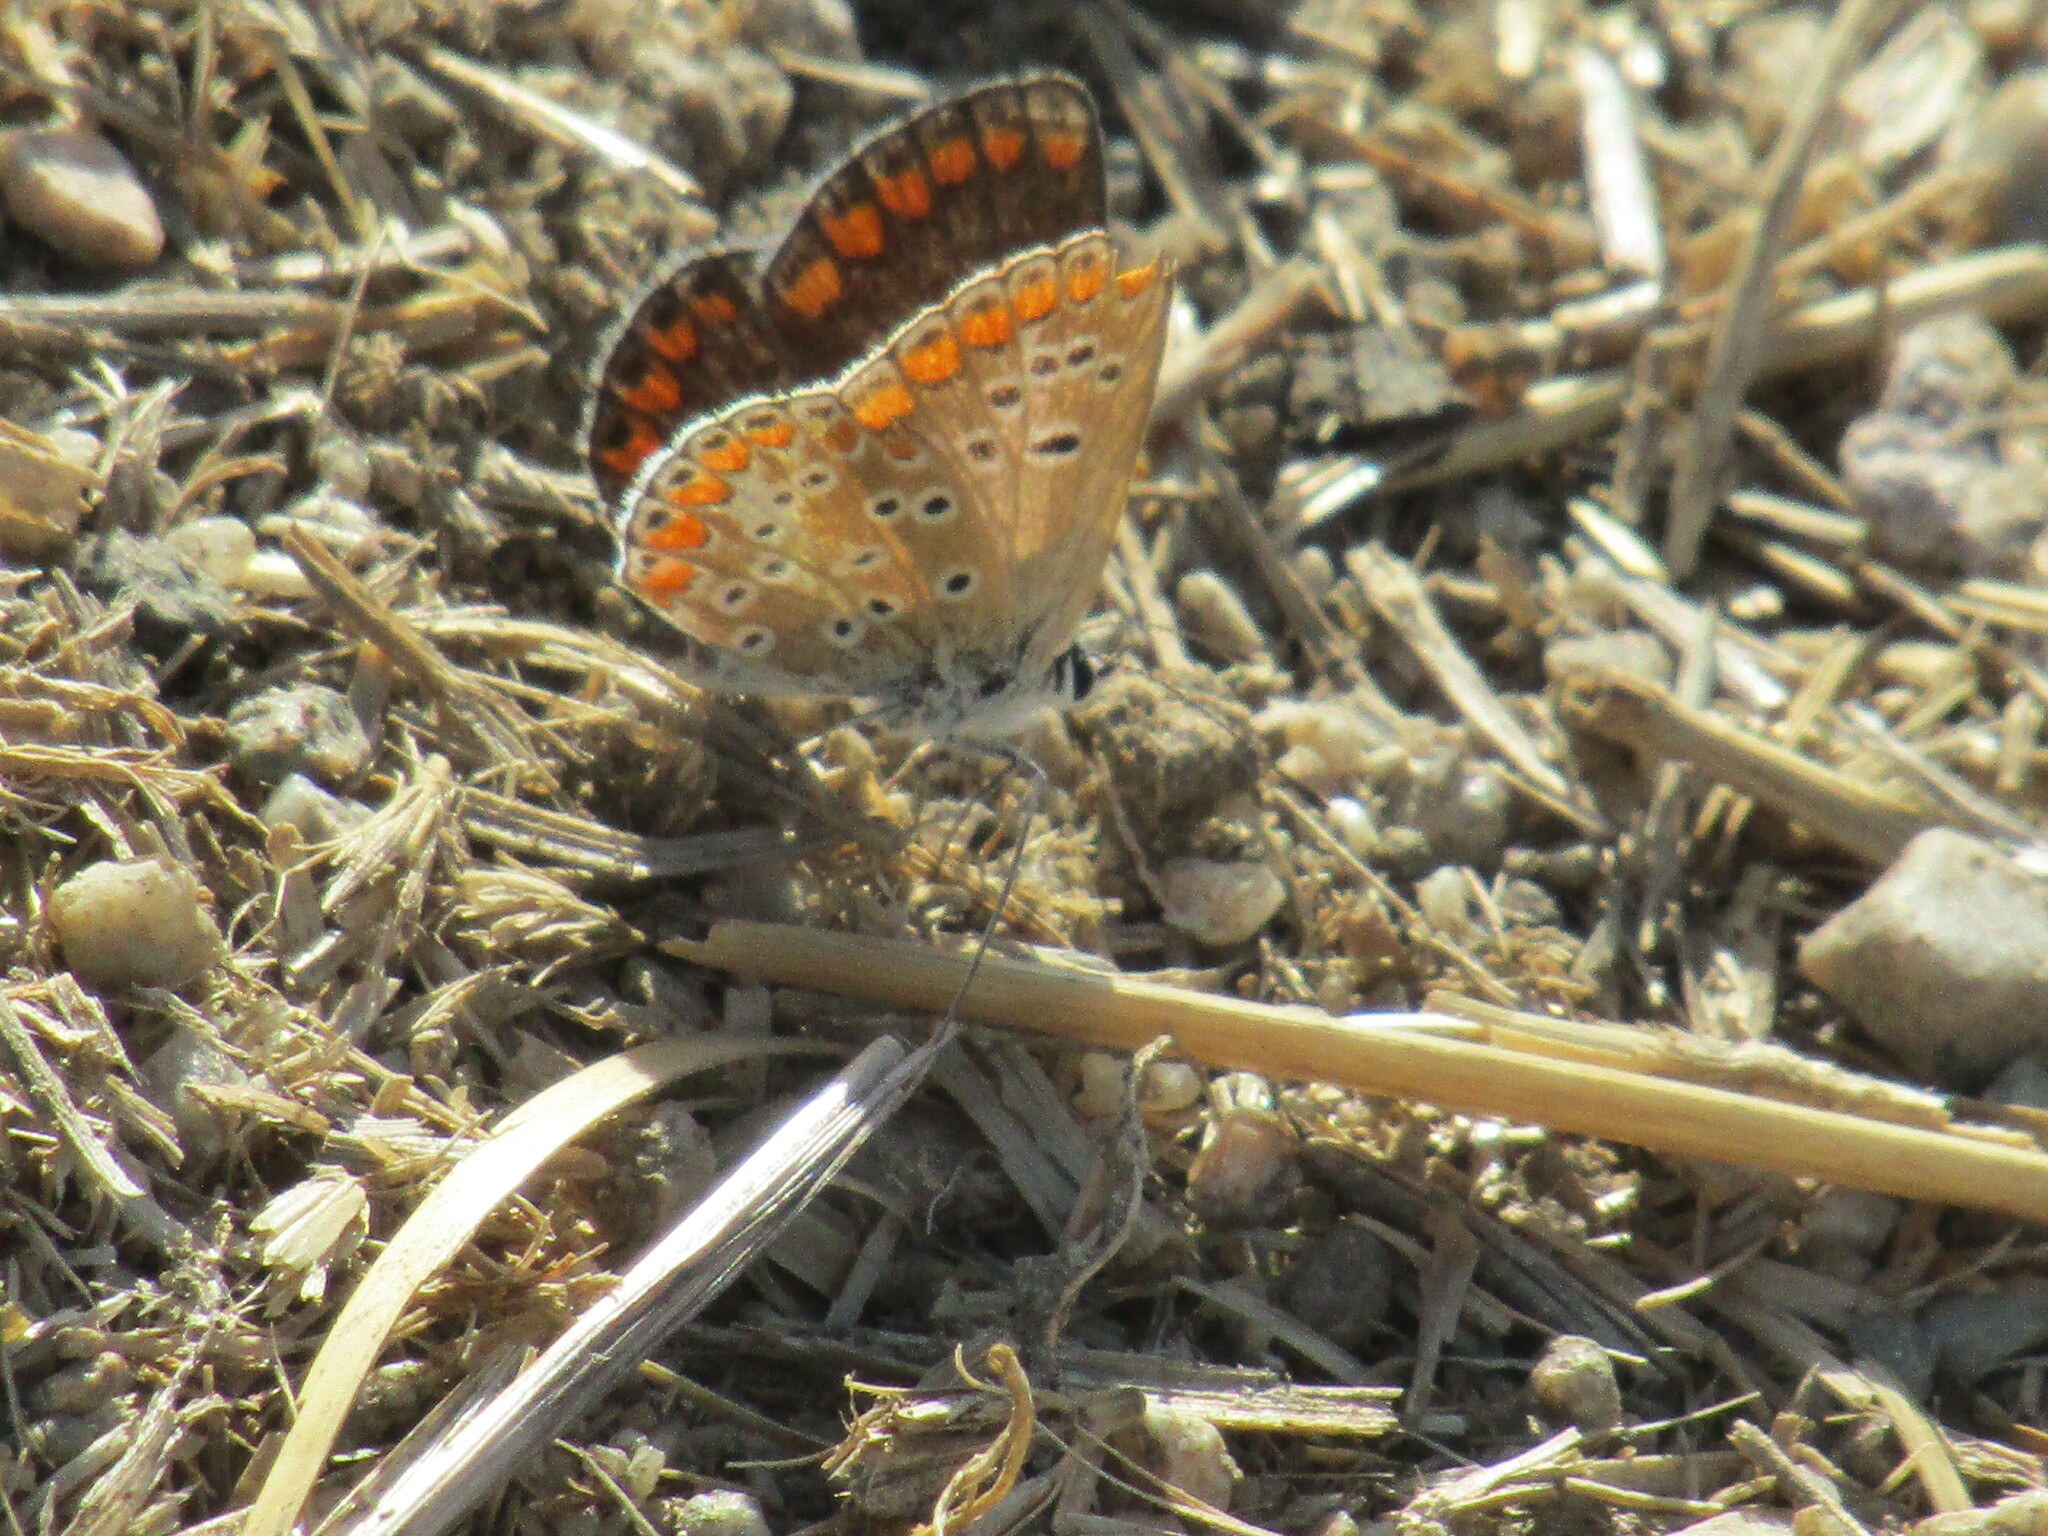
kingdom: Animalia
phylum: Arthropoda
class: Insecta
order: Lepidoptera
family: Lycaenidae
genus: Aricia
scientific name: Aricia agestis
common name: Brown argus
